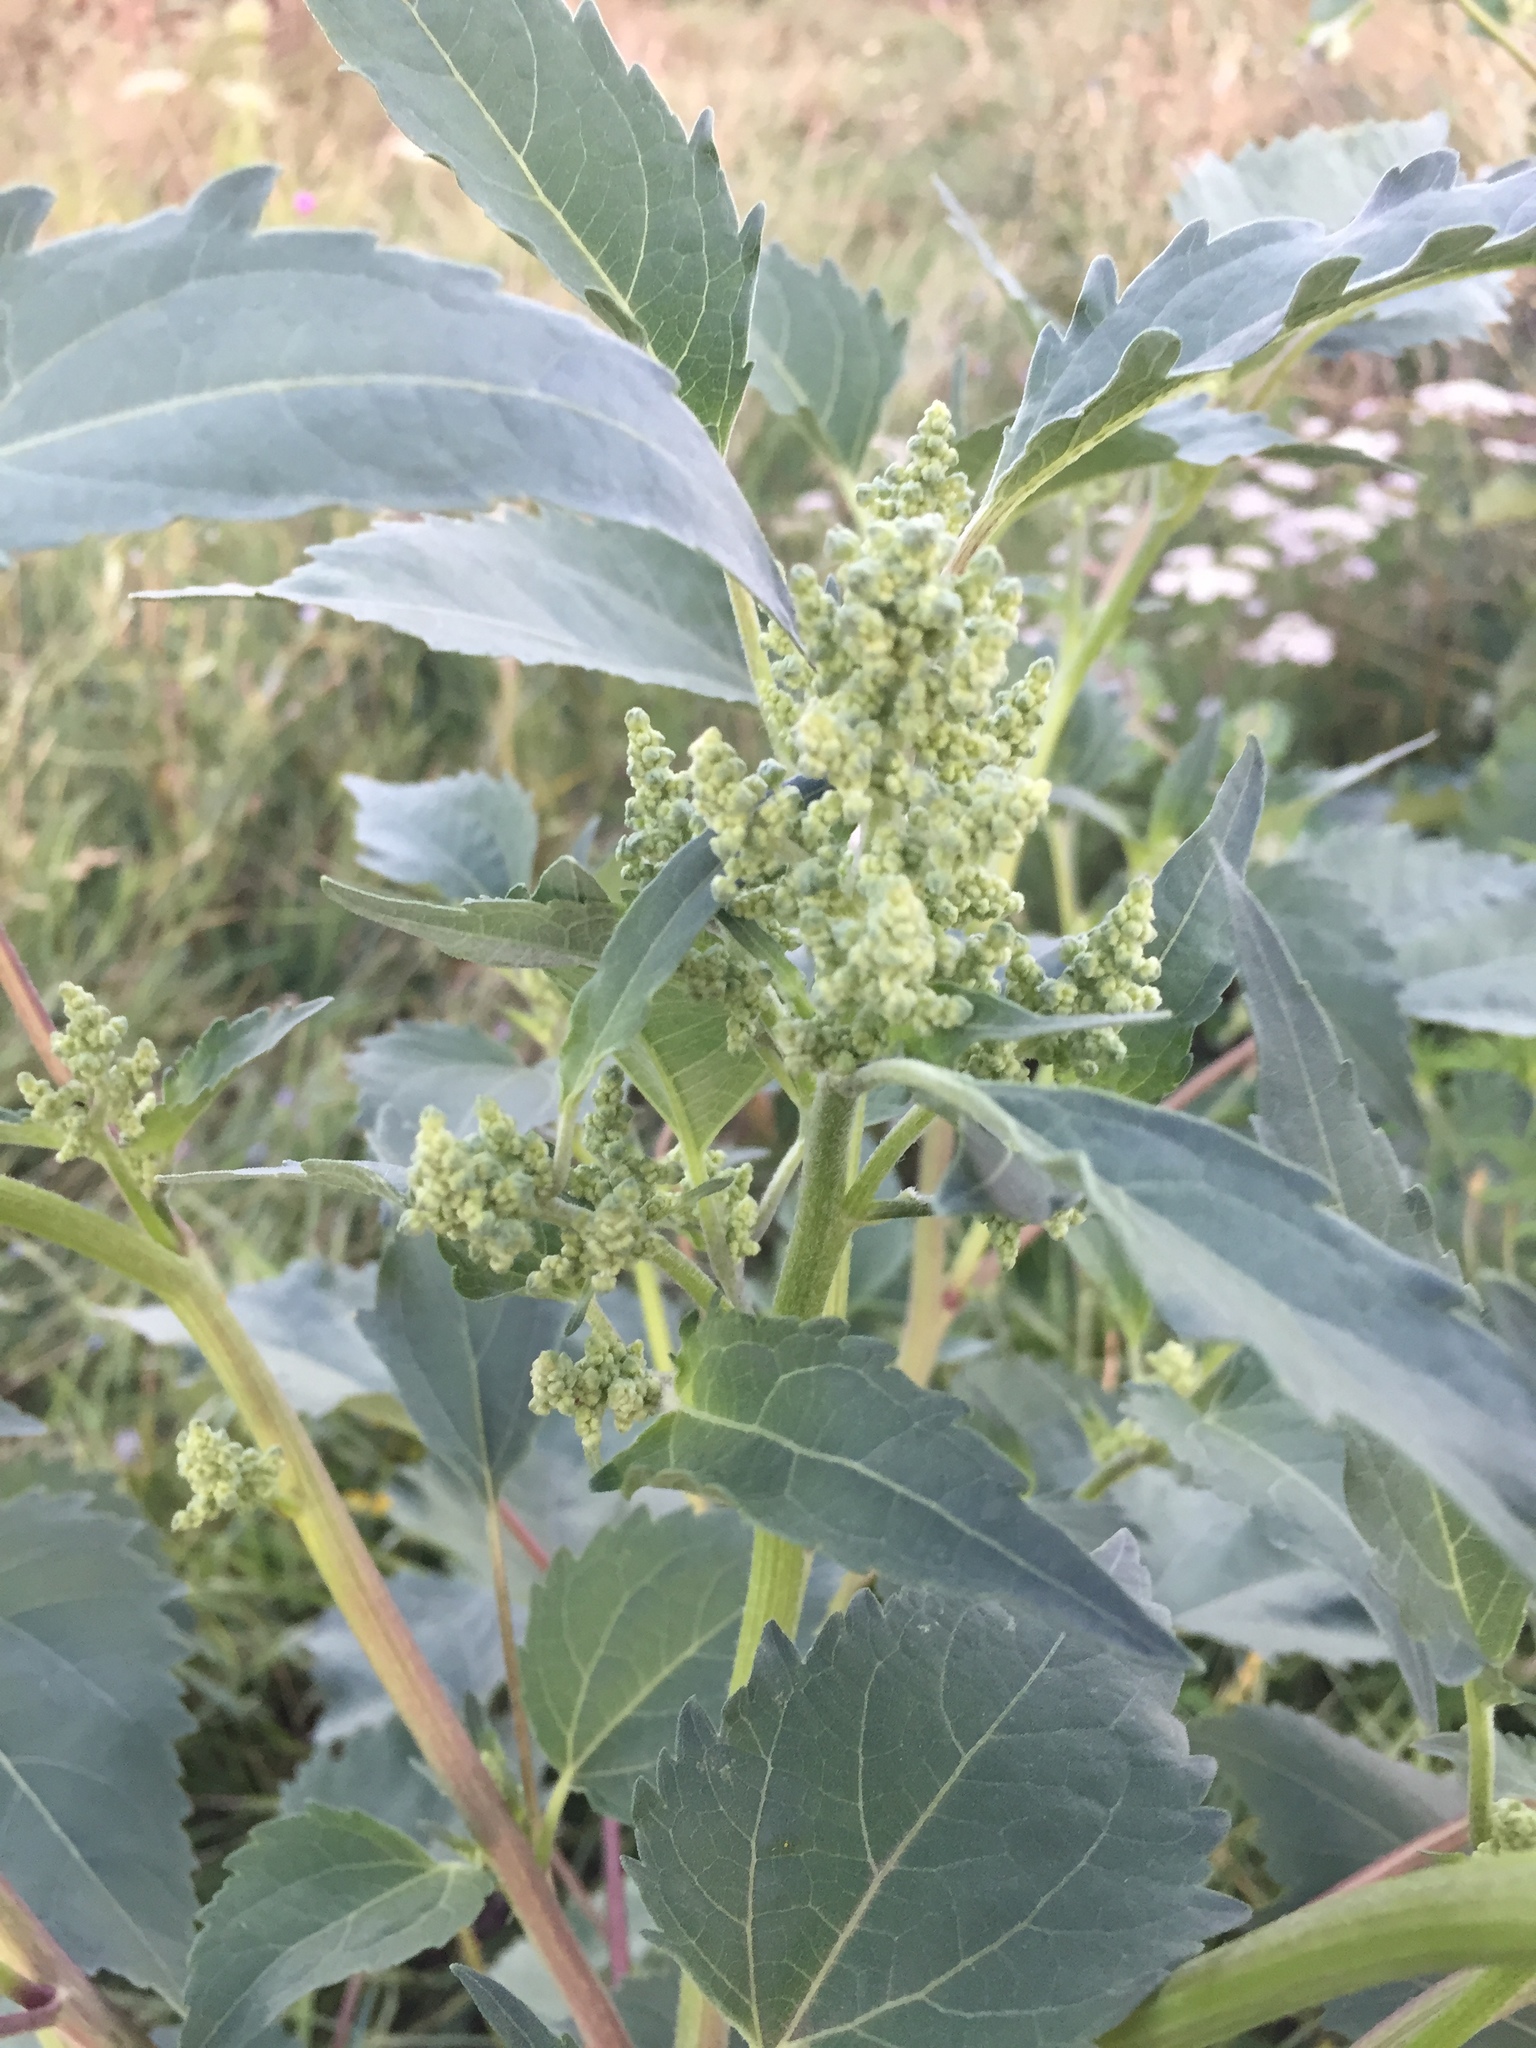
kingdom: Plantae
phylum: Tracheophyta
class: Magnoliopsida
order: Asterales
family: Asteraceae
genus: Cyclachaena
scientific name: Cyclachaena xanthiifolia
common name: Giant sumpweed
